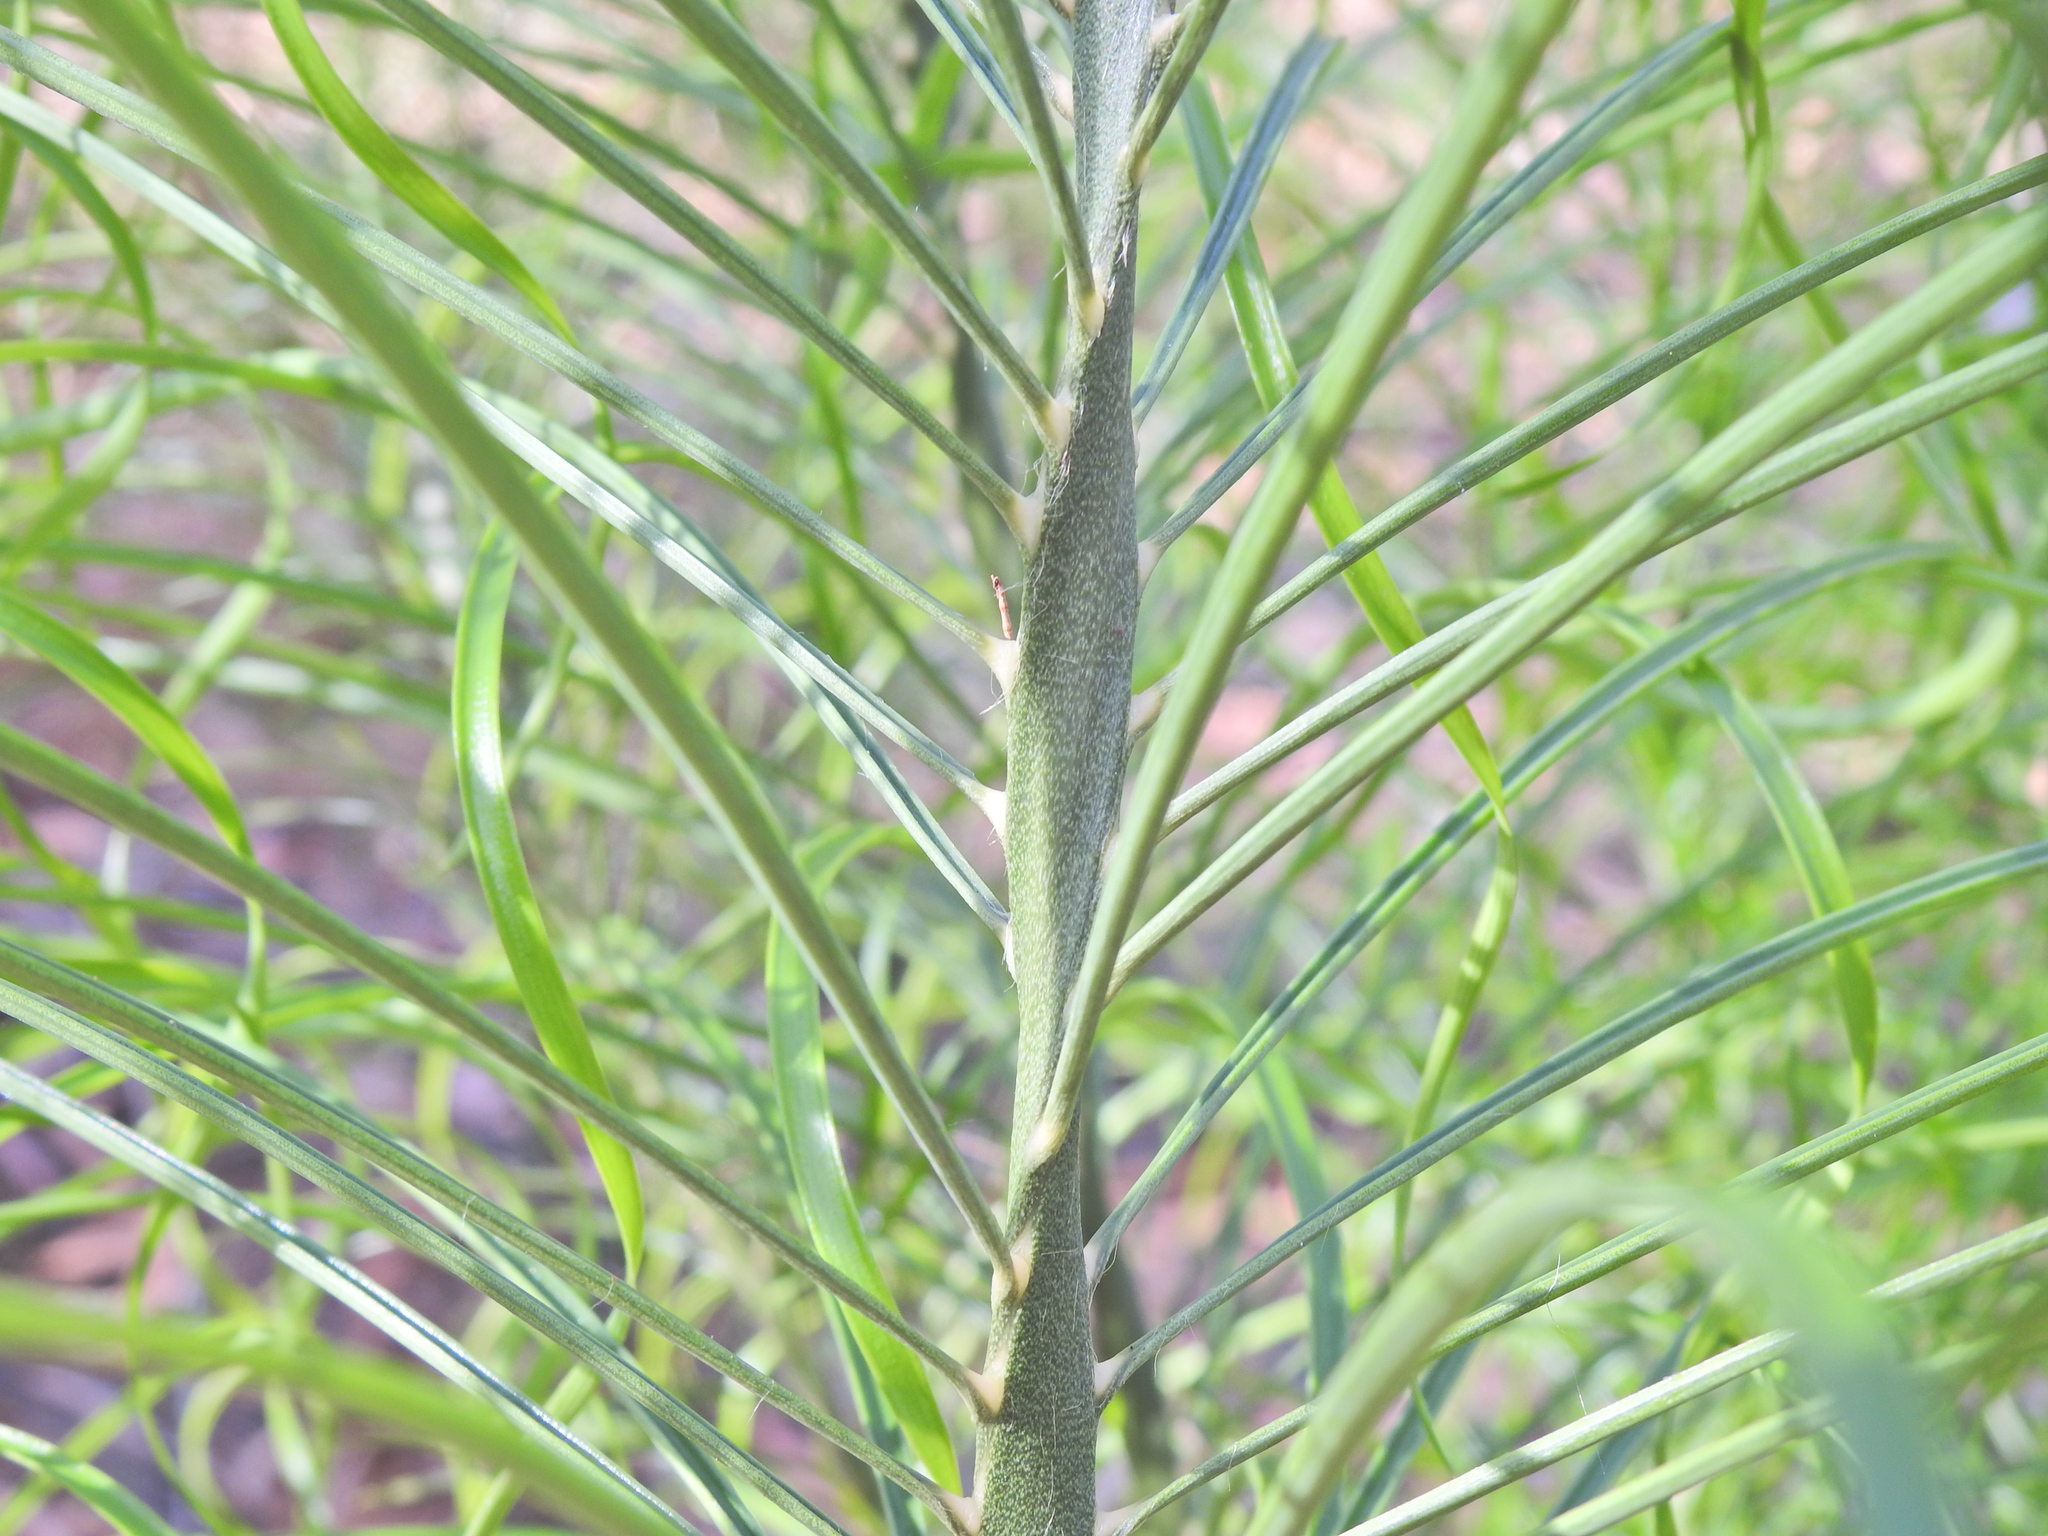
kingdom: Plantae
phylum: Tracheophyta
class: Cycadopsida
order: Cycadales
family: Zamiaceae
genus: Macrozamia
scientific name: Macrozamia pauli-guilielmi
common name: Pineapple zamia
